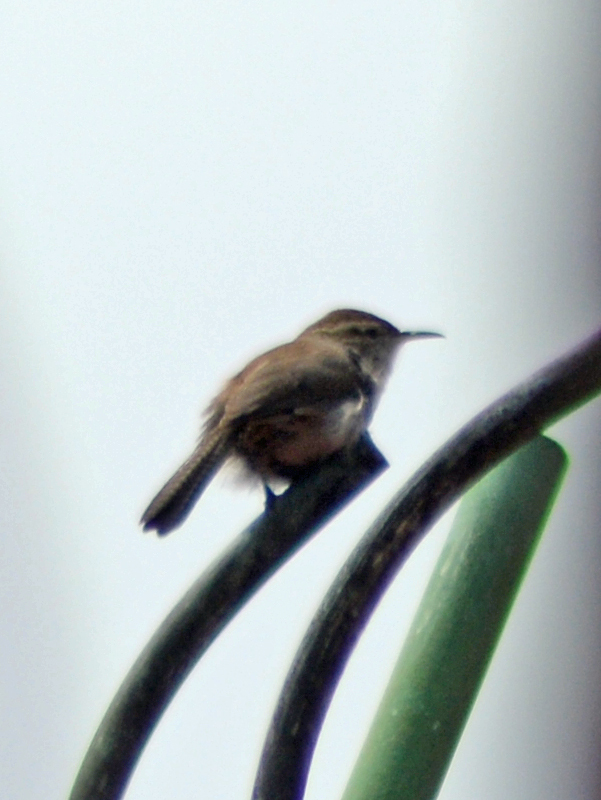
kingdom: Animalia
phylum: Chordata
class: Aves
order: Passeriformes
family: Troglodytidae
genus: Thryomanes
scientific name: Thryomanes bewickii
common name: Bewick's wren
